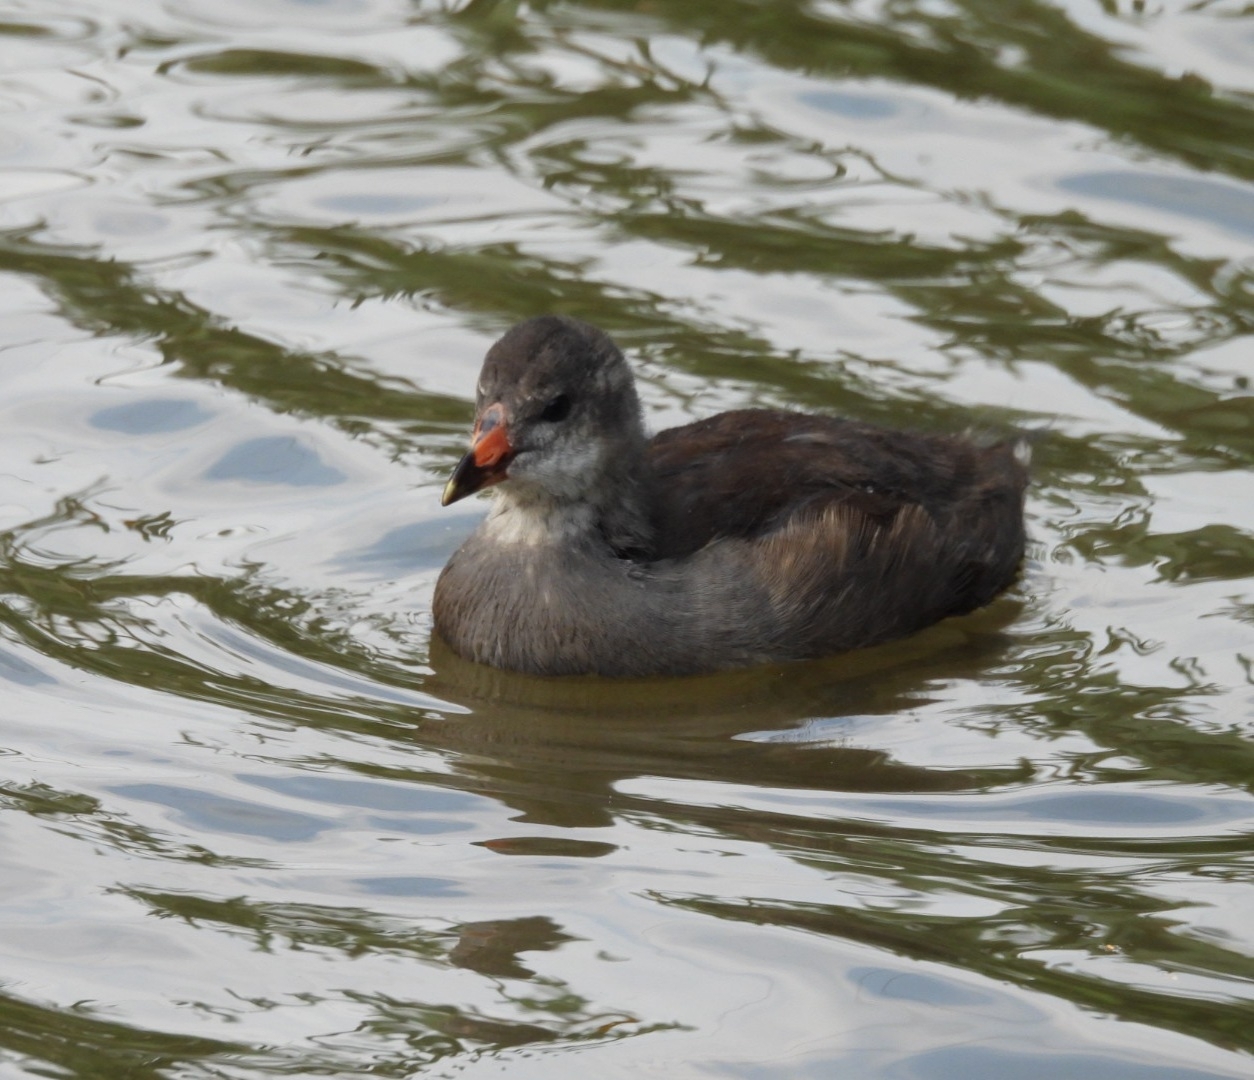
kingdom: Animalia
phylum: Chordata
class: Aves
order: Gruiformes
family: Rallidae
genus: Gallinula
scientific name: Gallinula chloropus
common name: Common moorhen
